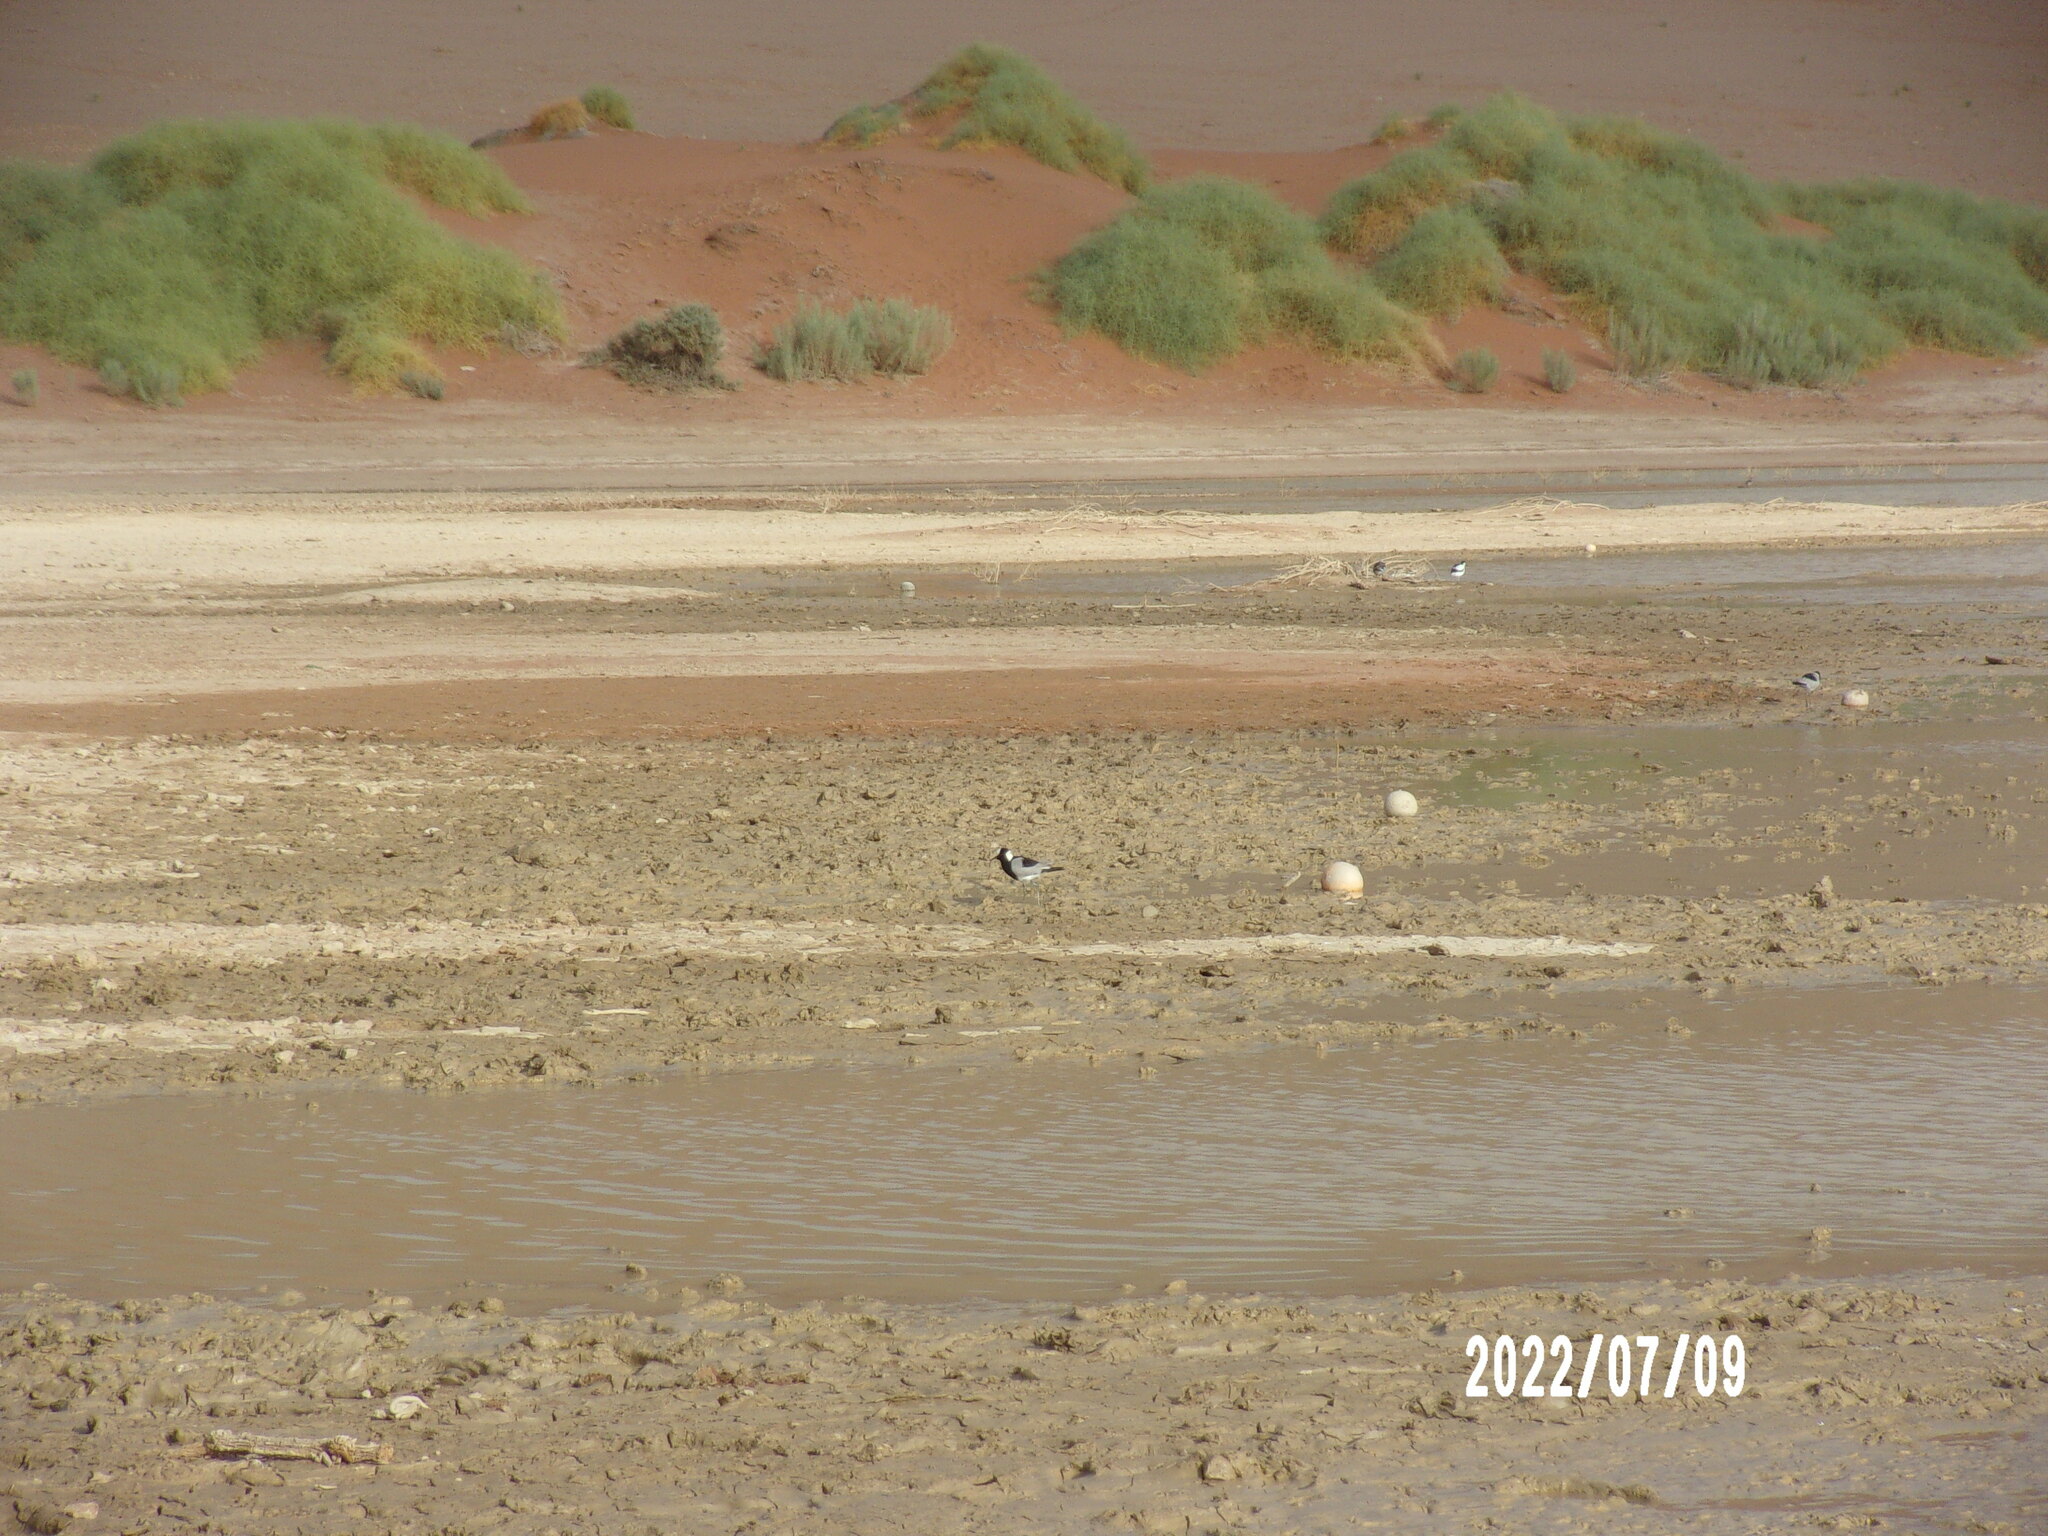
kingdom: Animalia
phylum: Chordata
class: Aves
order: Charadriiformes
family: Charadriidae
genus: Vanellus
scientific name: Vanellus armatus
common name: Blacksmith lapwing
